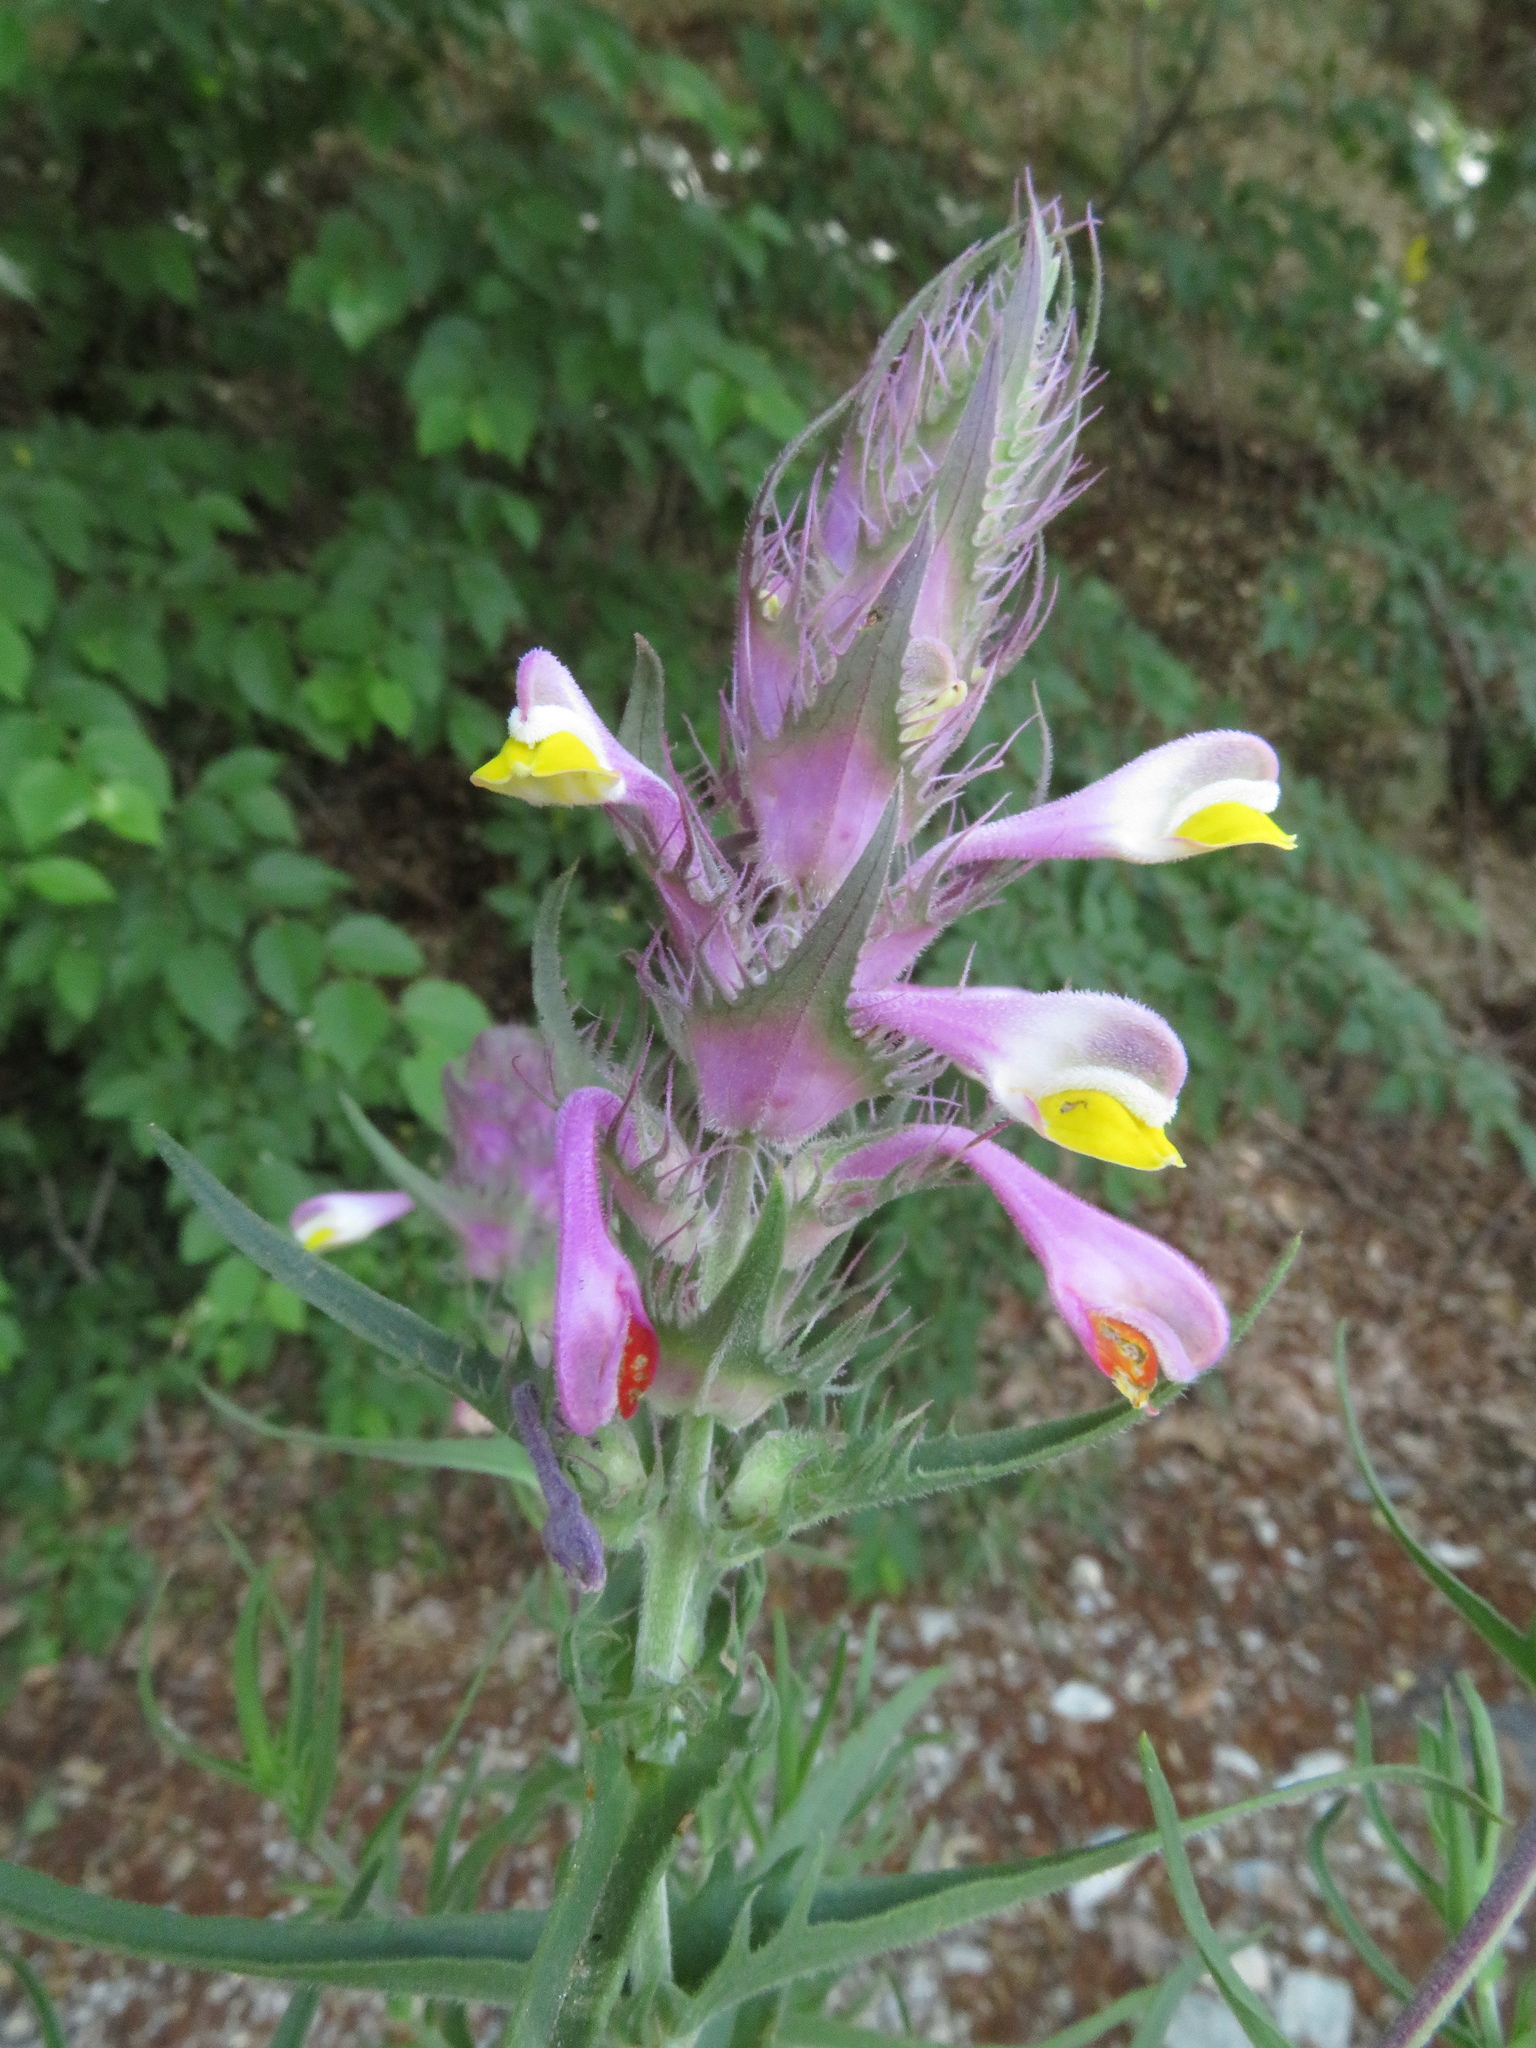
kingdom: Plantae
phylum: Tracheophyta
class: Magnoliopsida
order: Lamiales
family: Orobanchaceae
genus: Melampyrum
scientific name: Melampyrum arvense
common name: Field cow-wheat
